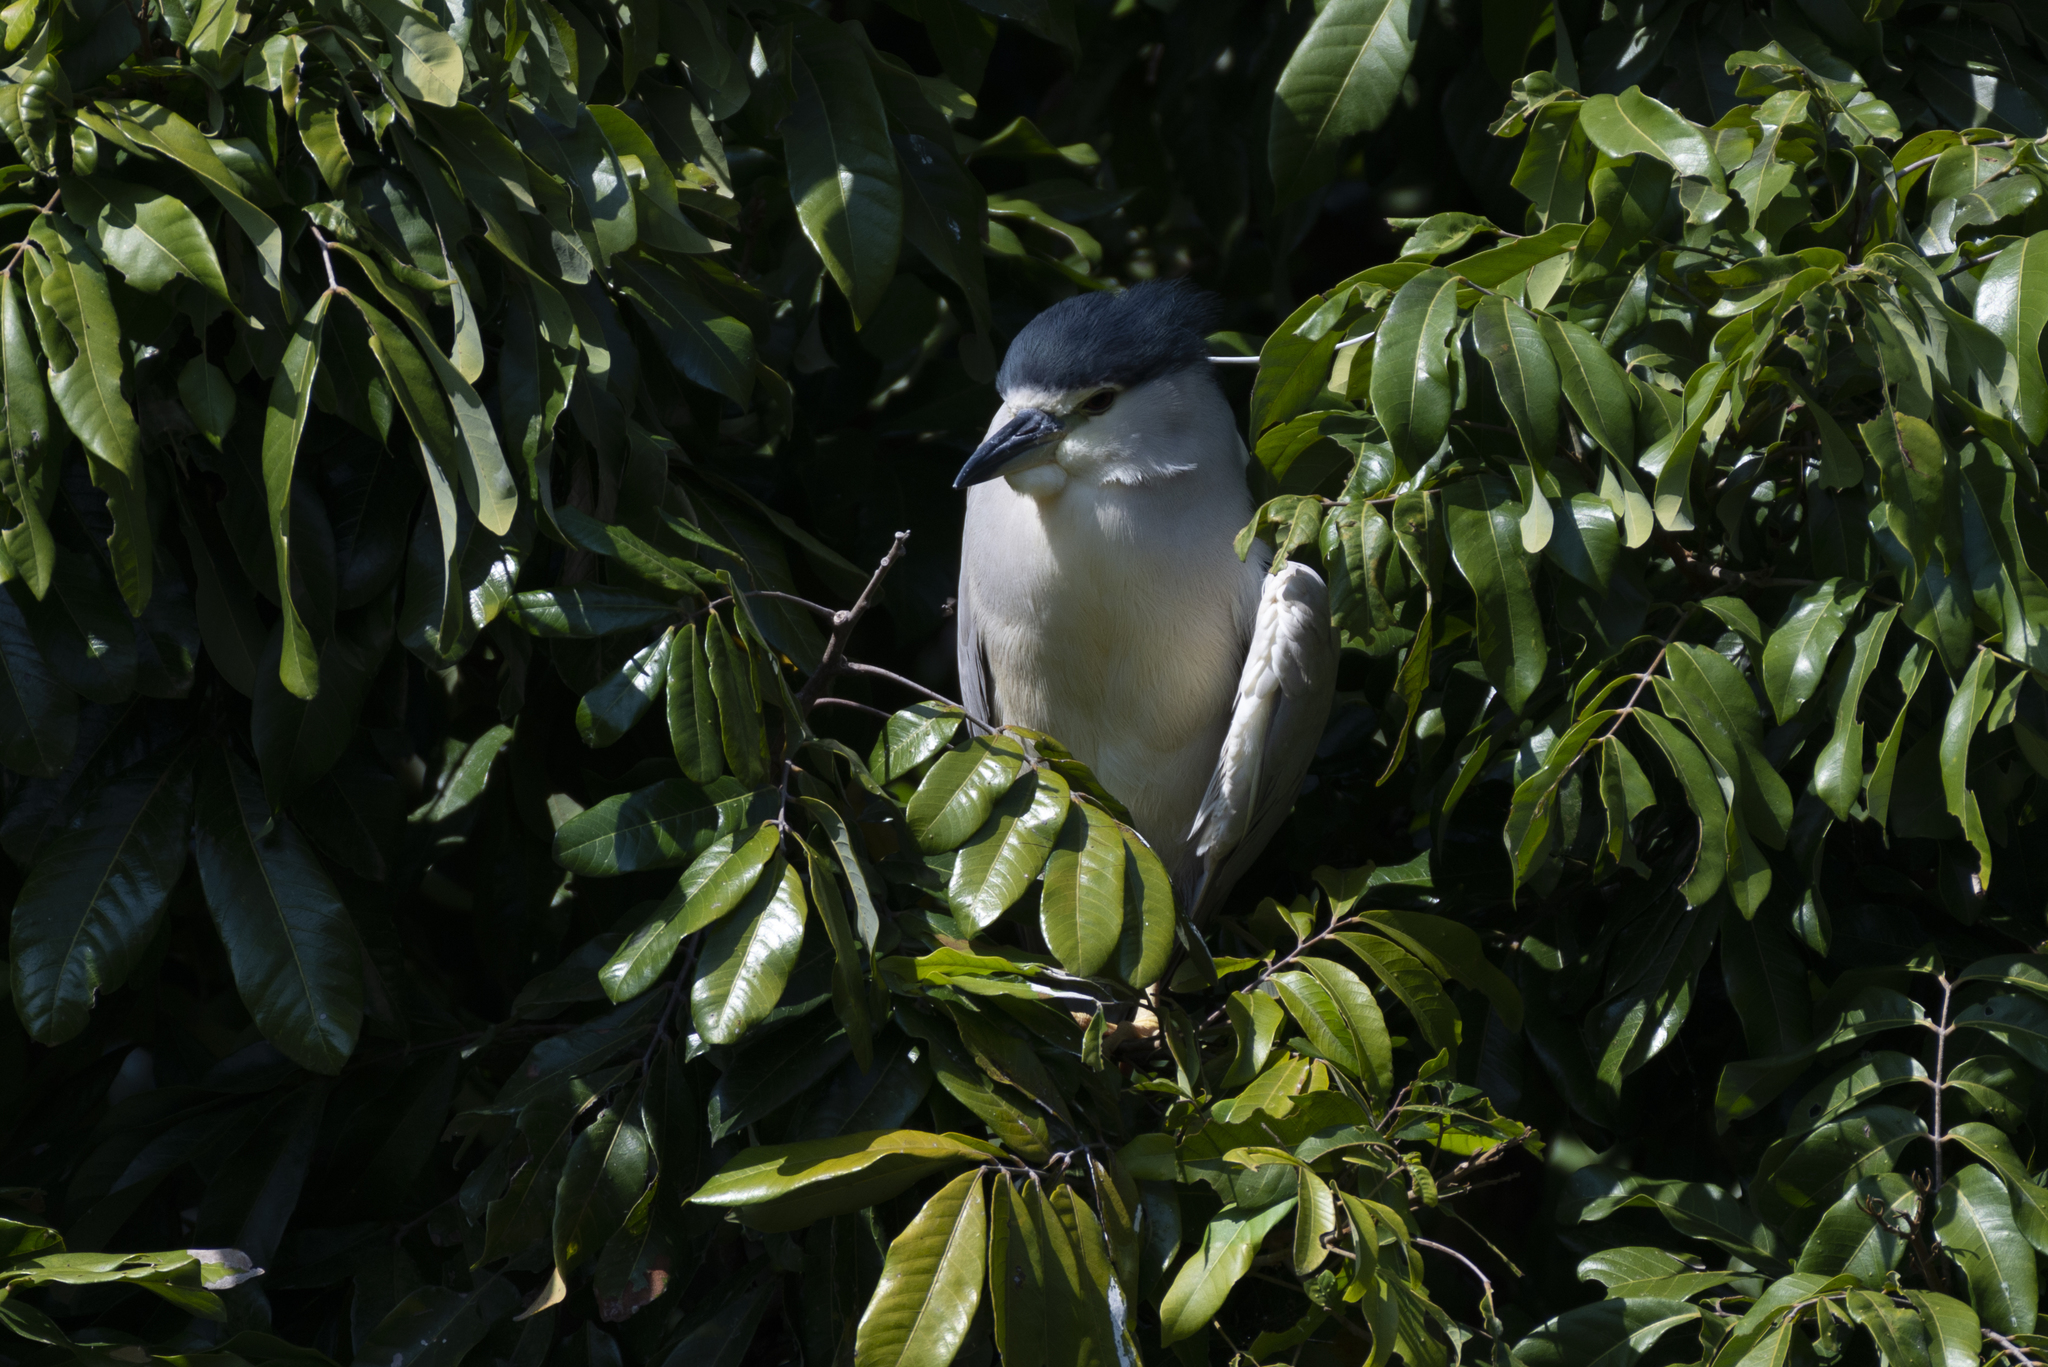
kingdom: Animalia
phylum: Chordata
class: Aves
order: Pelecaniformes
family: Ardeidae
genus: Nycticorax
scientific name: Nycticorax nycticorax
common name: Black-crowned night heron
